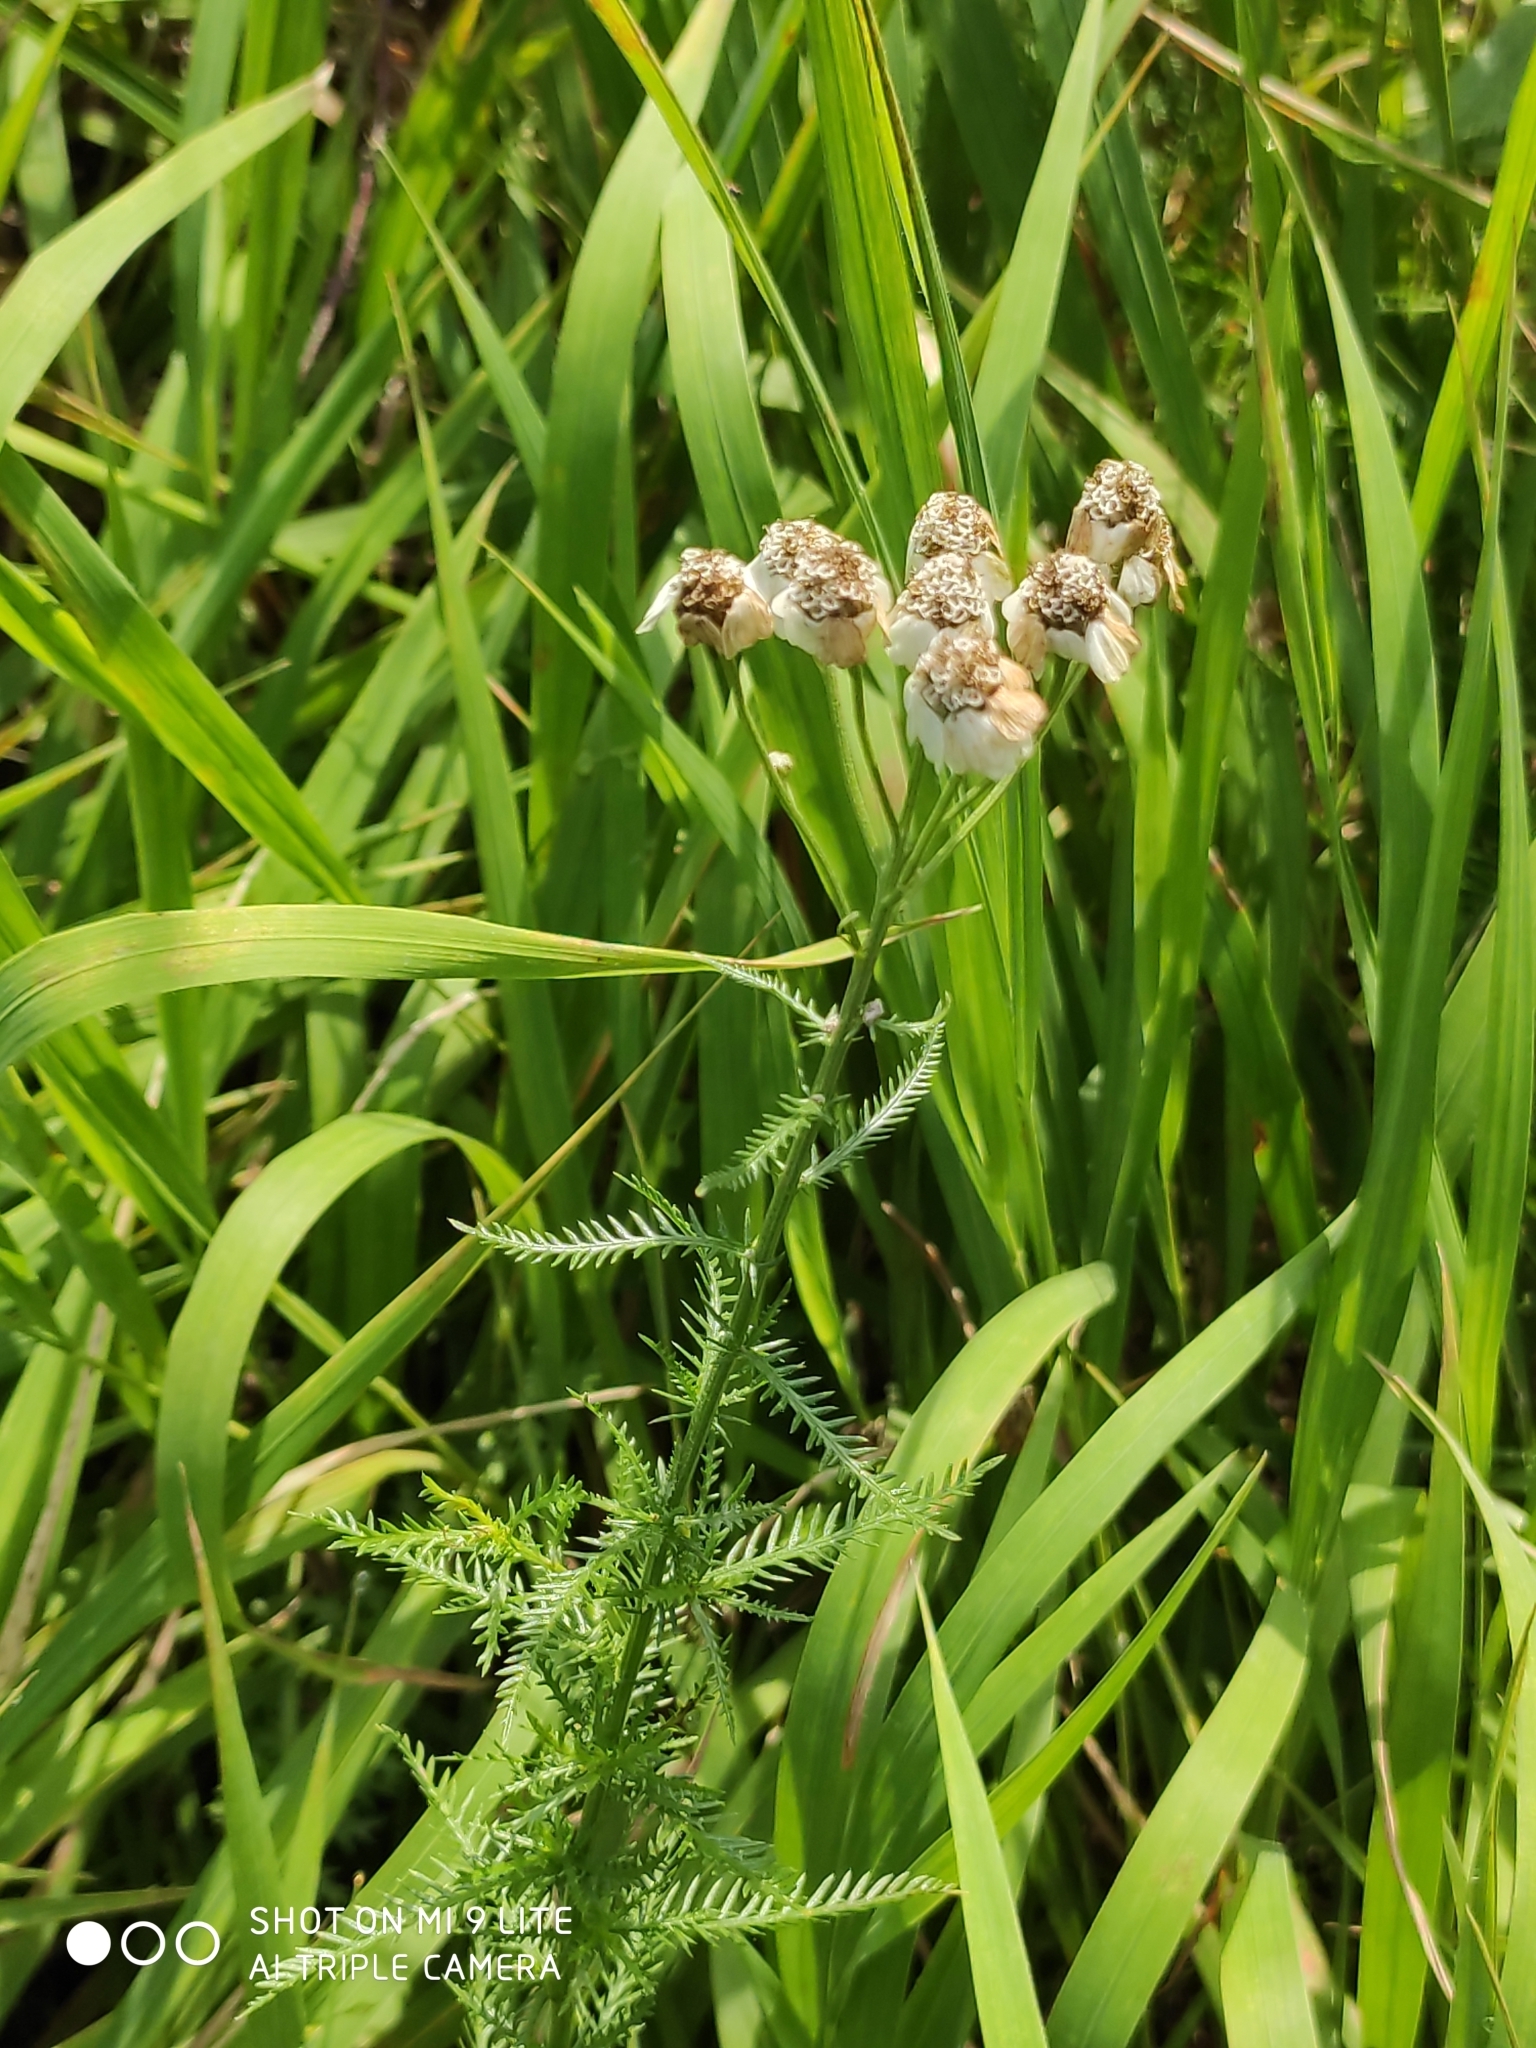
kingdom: Plantae
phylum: Tracheophyta
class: Magnoliopsida
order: Asterales
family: Asteraceae
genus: Achillea
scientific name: Achillea impatiens
